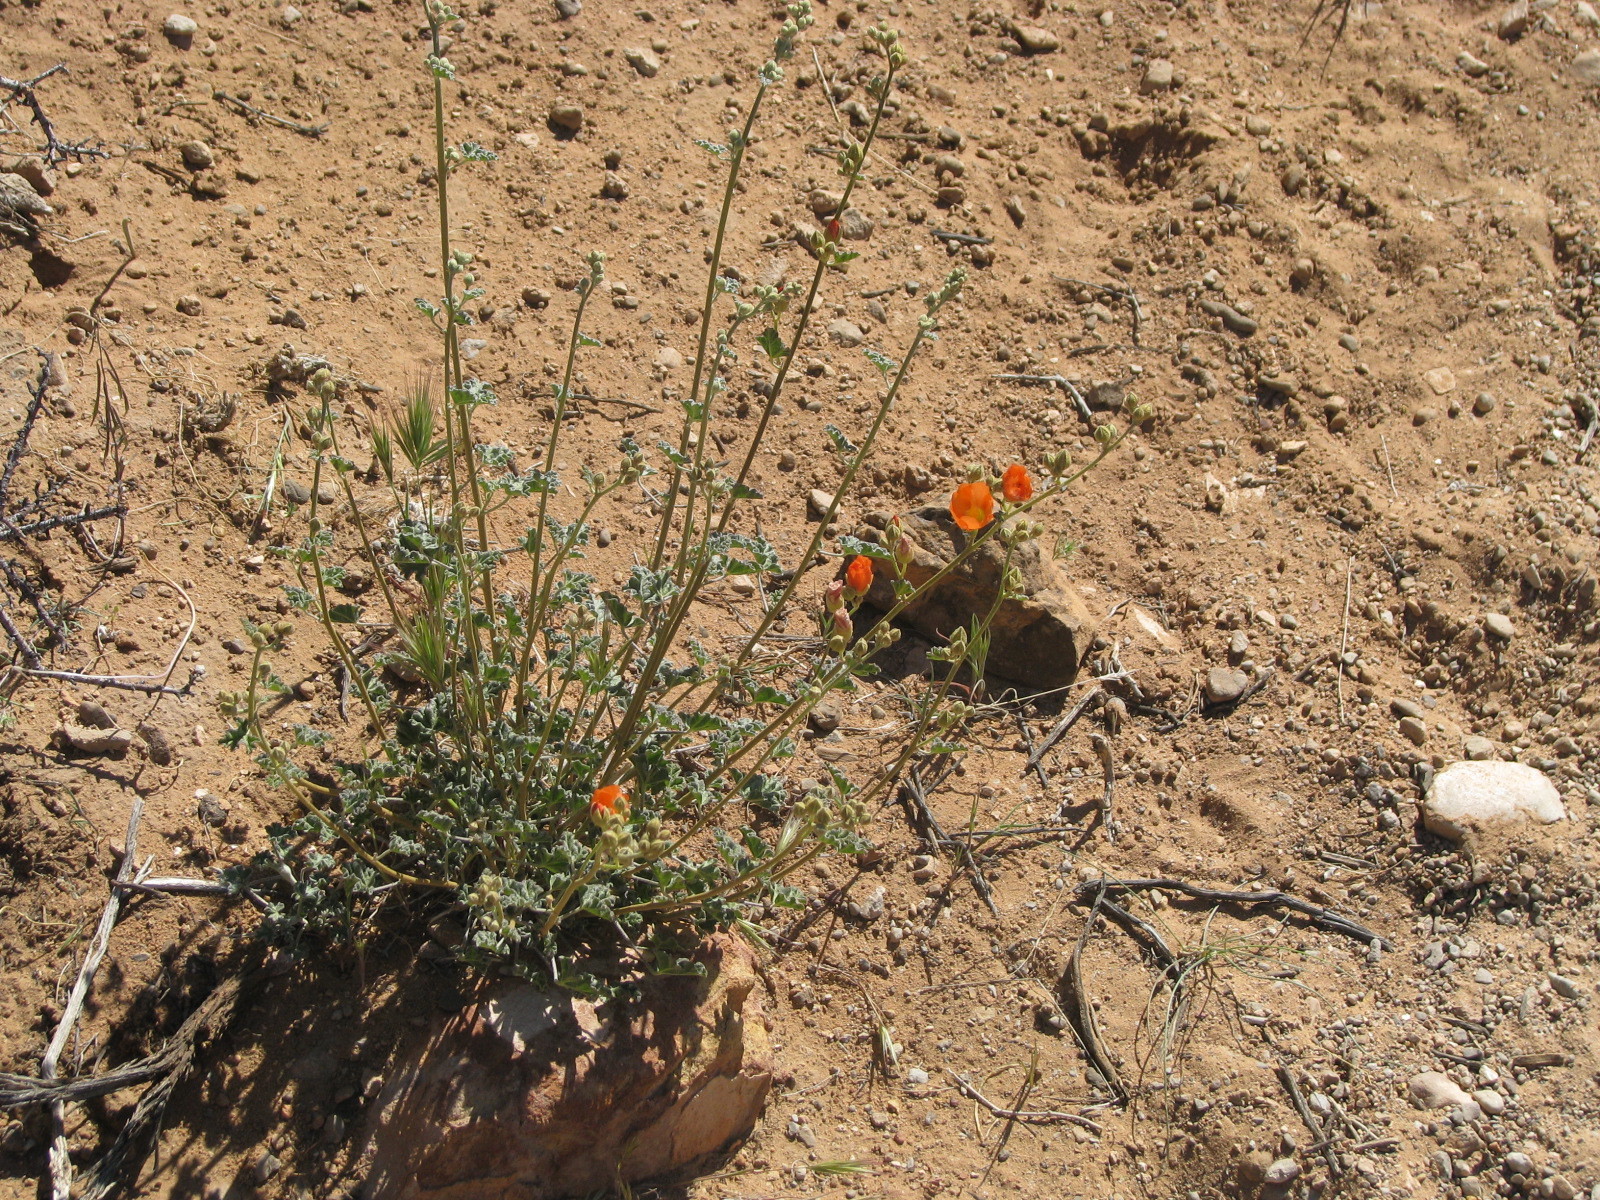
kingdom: Plantae
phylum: Tracheophyta
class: Magnoliopsida
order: Malvales
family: Malvaceae
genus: Sphaeralcea
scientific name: Sphaeralcea ambigua
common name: Apricot globe-mallow
